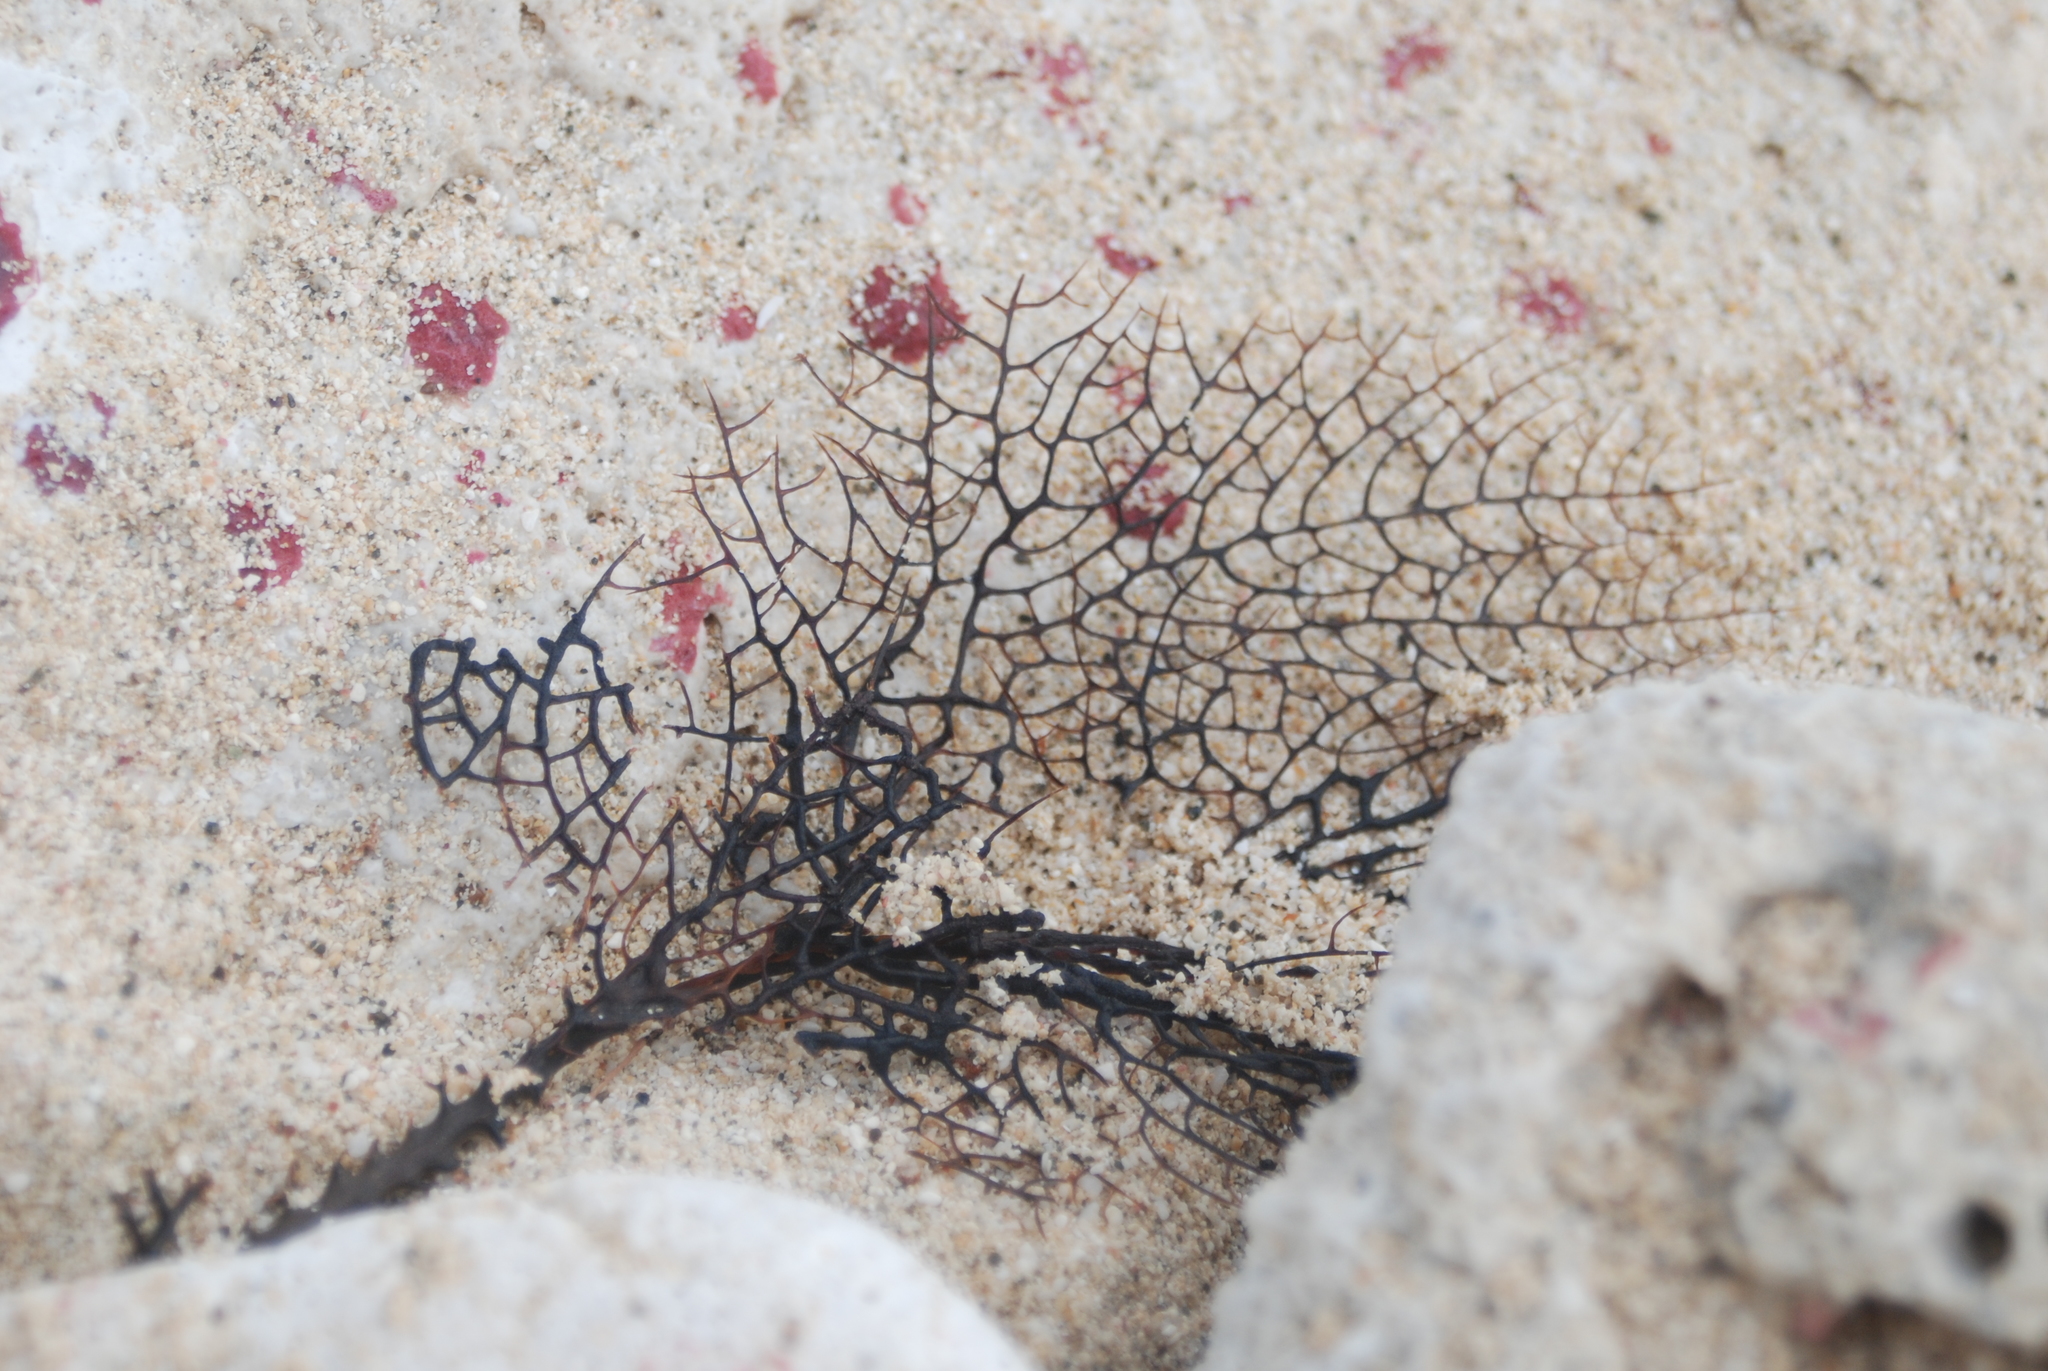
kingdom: Animalia
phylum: Cnidaria
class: Anthozoa
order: Malacalcyonacea
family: Gorgoniidae
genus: Gorgonia
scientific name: Gorgonia ventalina
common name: Common sea fan
